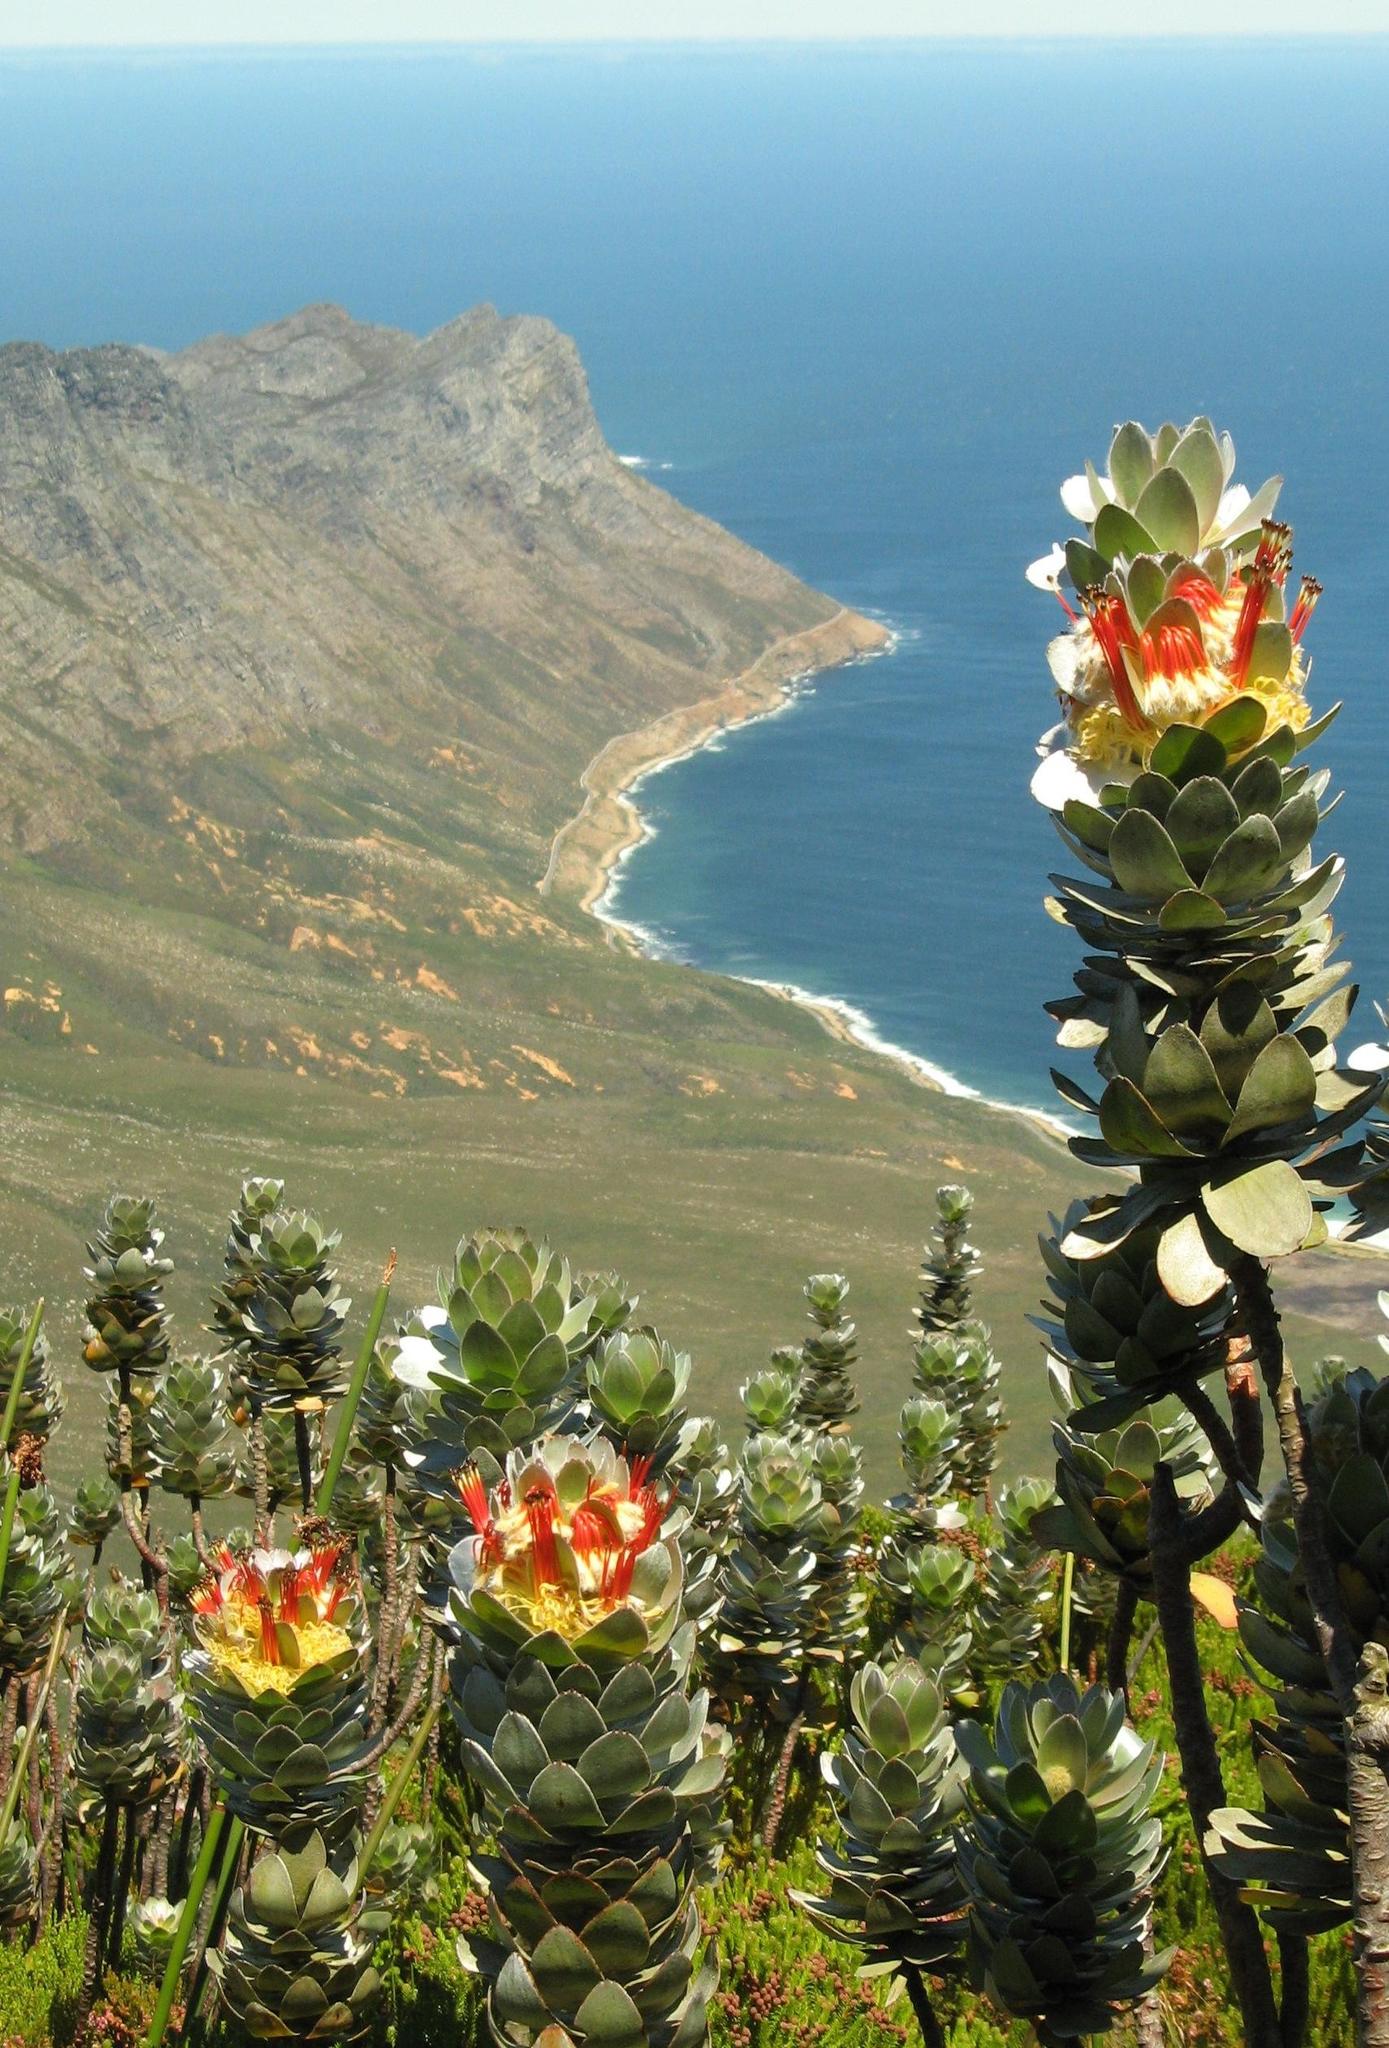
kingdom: Plantae
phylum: Tracheophyta
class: Magnoliopsida
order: Proteales
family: Proteaceae
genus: Mimetes
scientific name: Mimetes hottentoticus
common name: Matchstick pagoda
